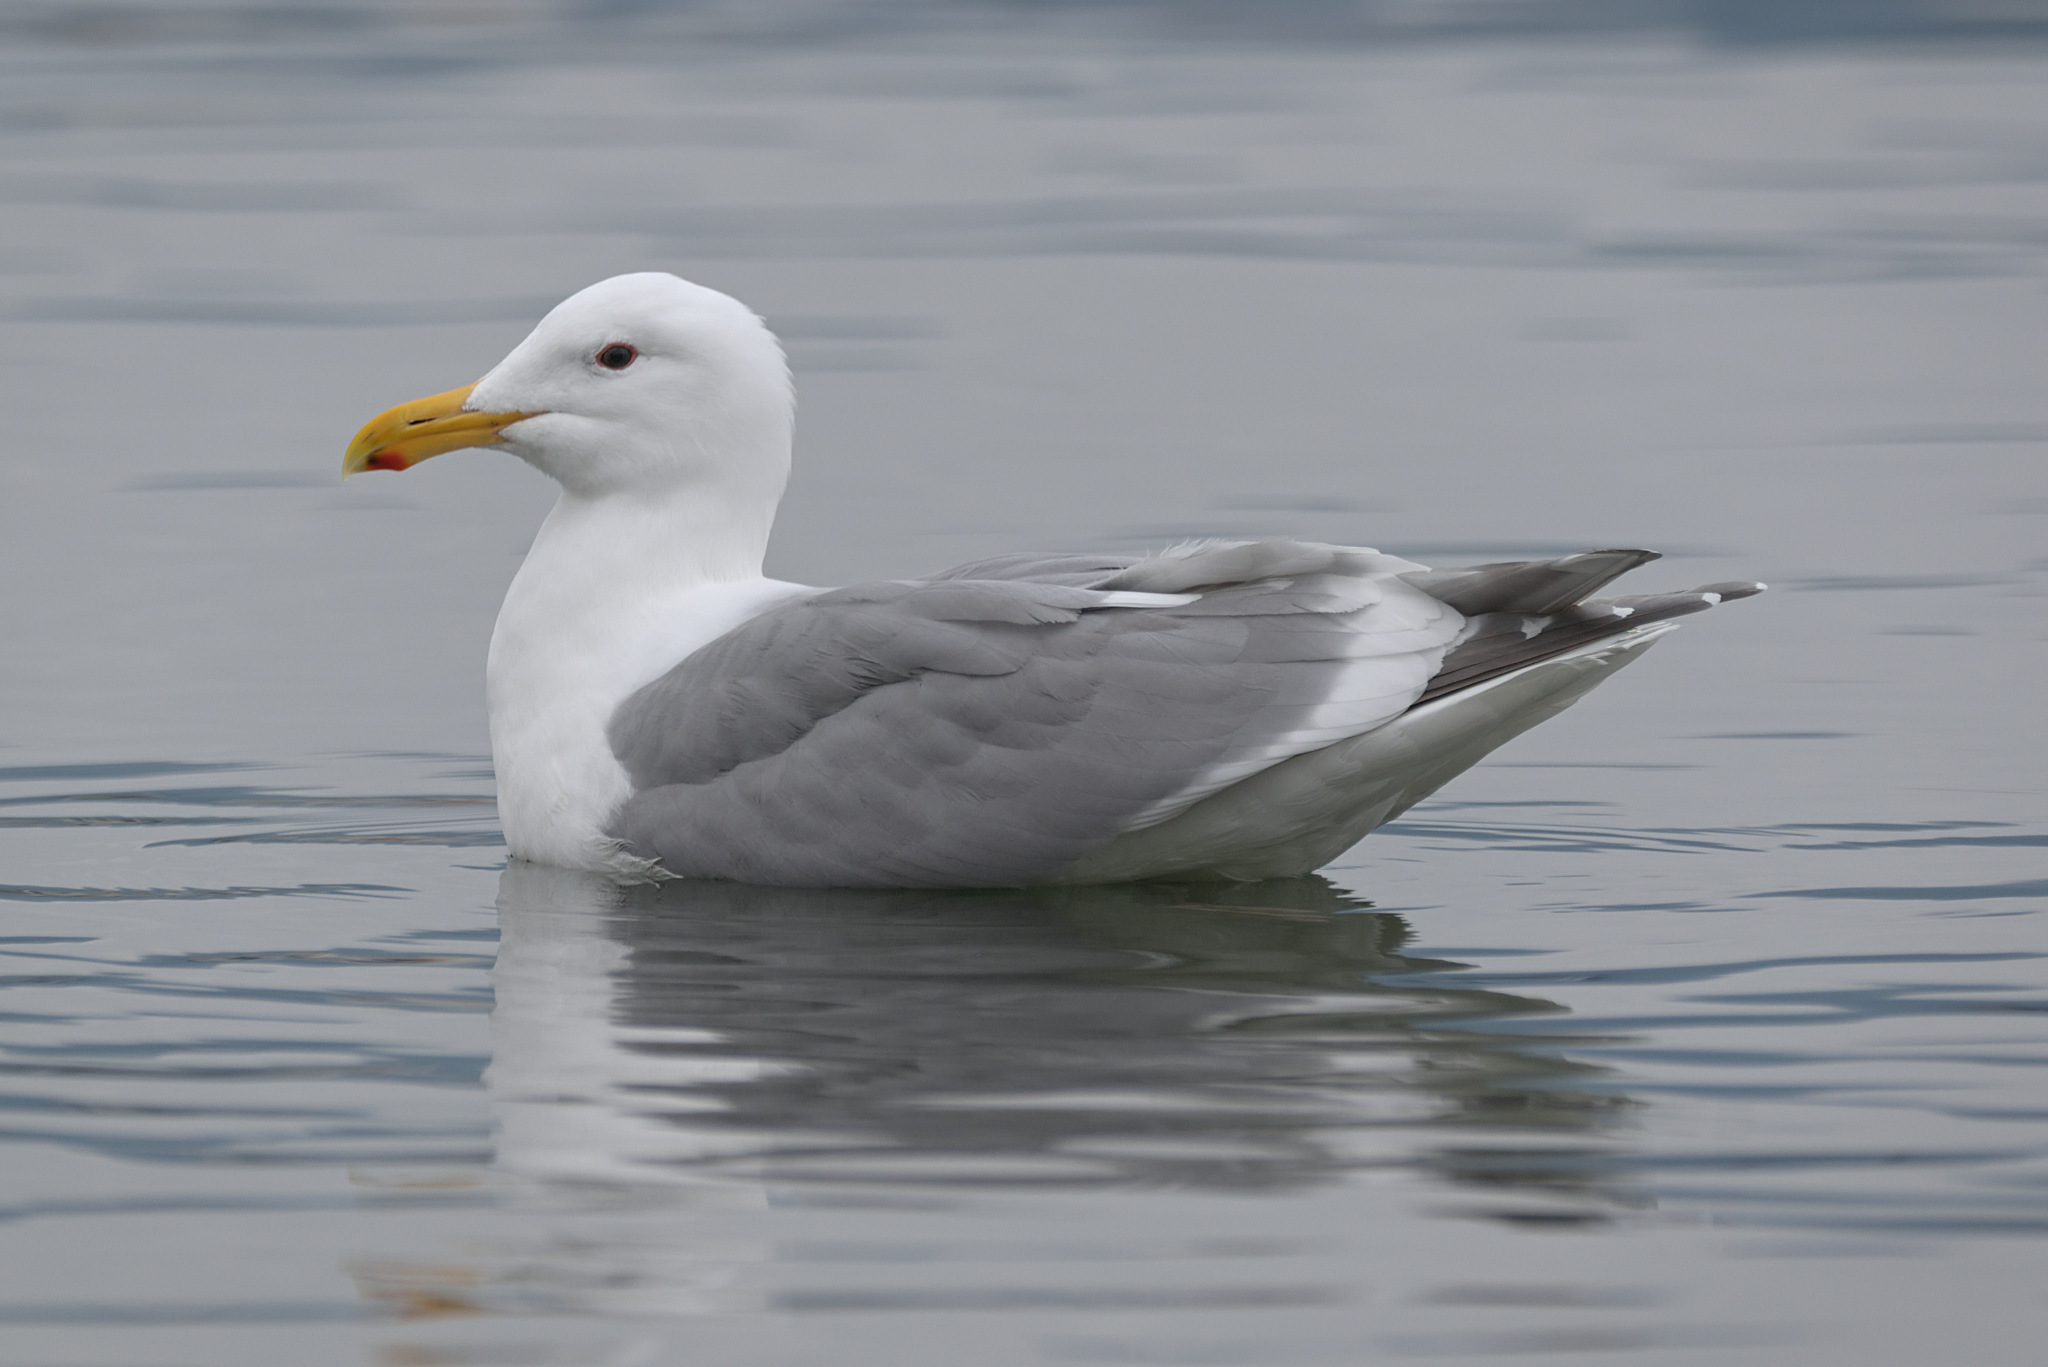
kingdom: Animalia
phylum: Chordata
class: Aves
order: Charadriiformes
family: Laridae
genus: Larus
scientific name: Larus
